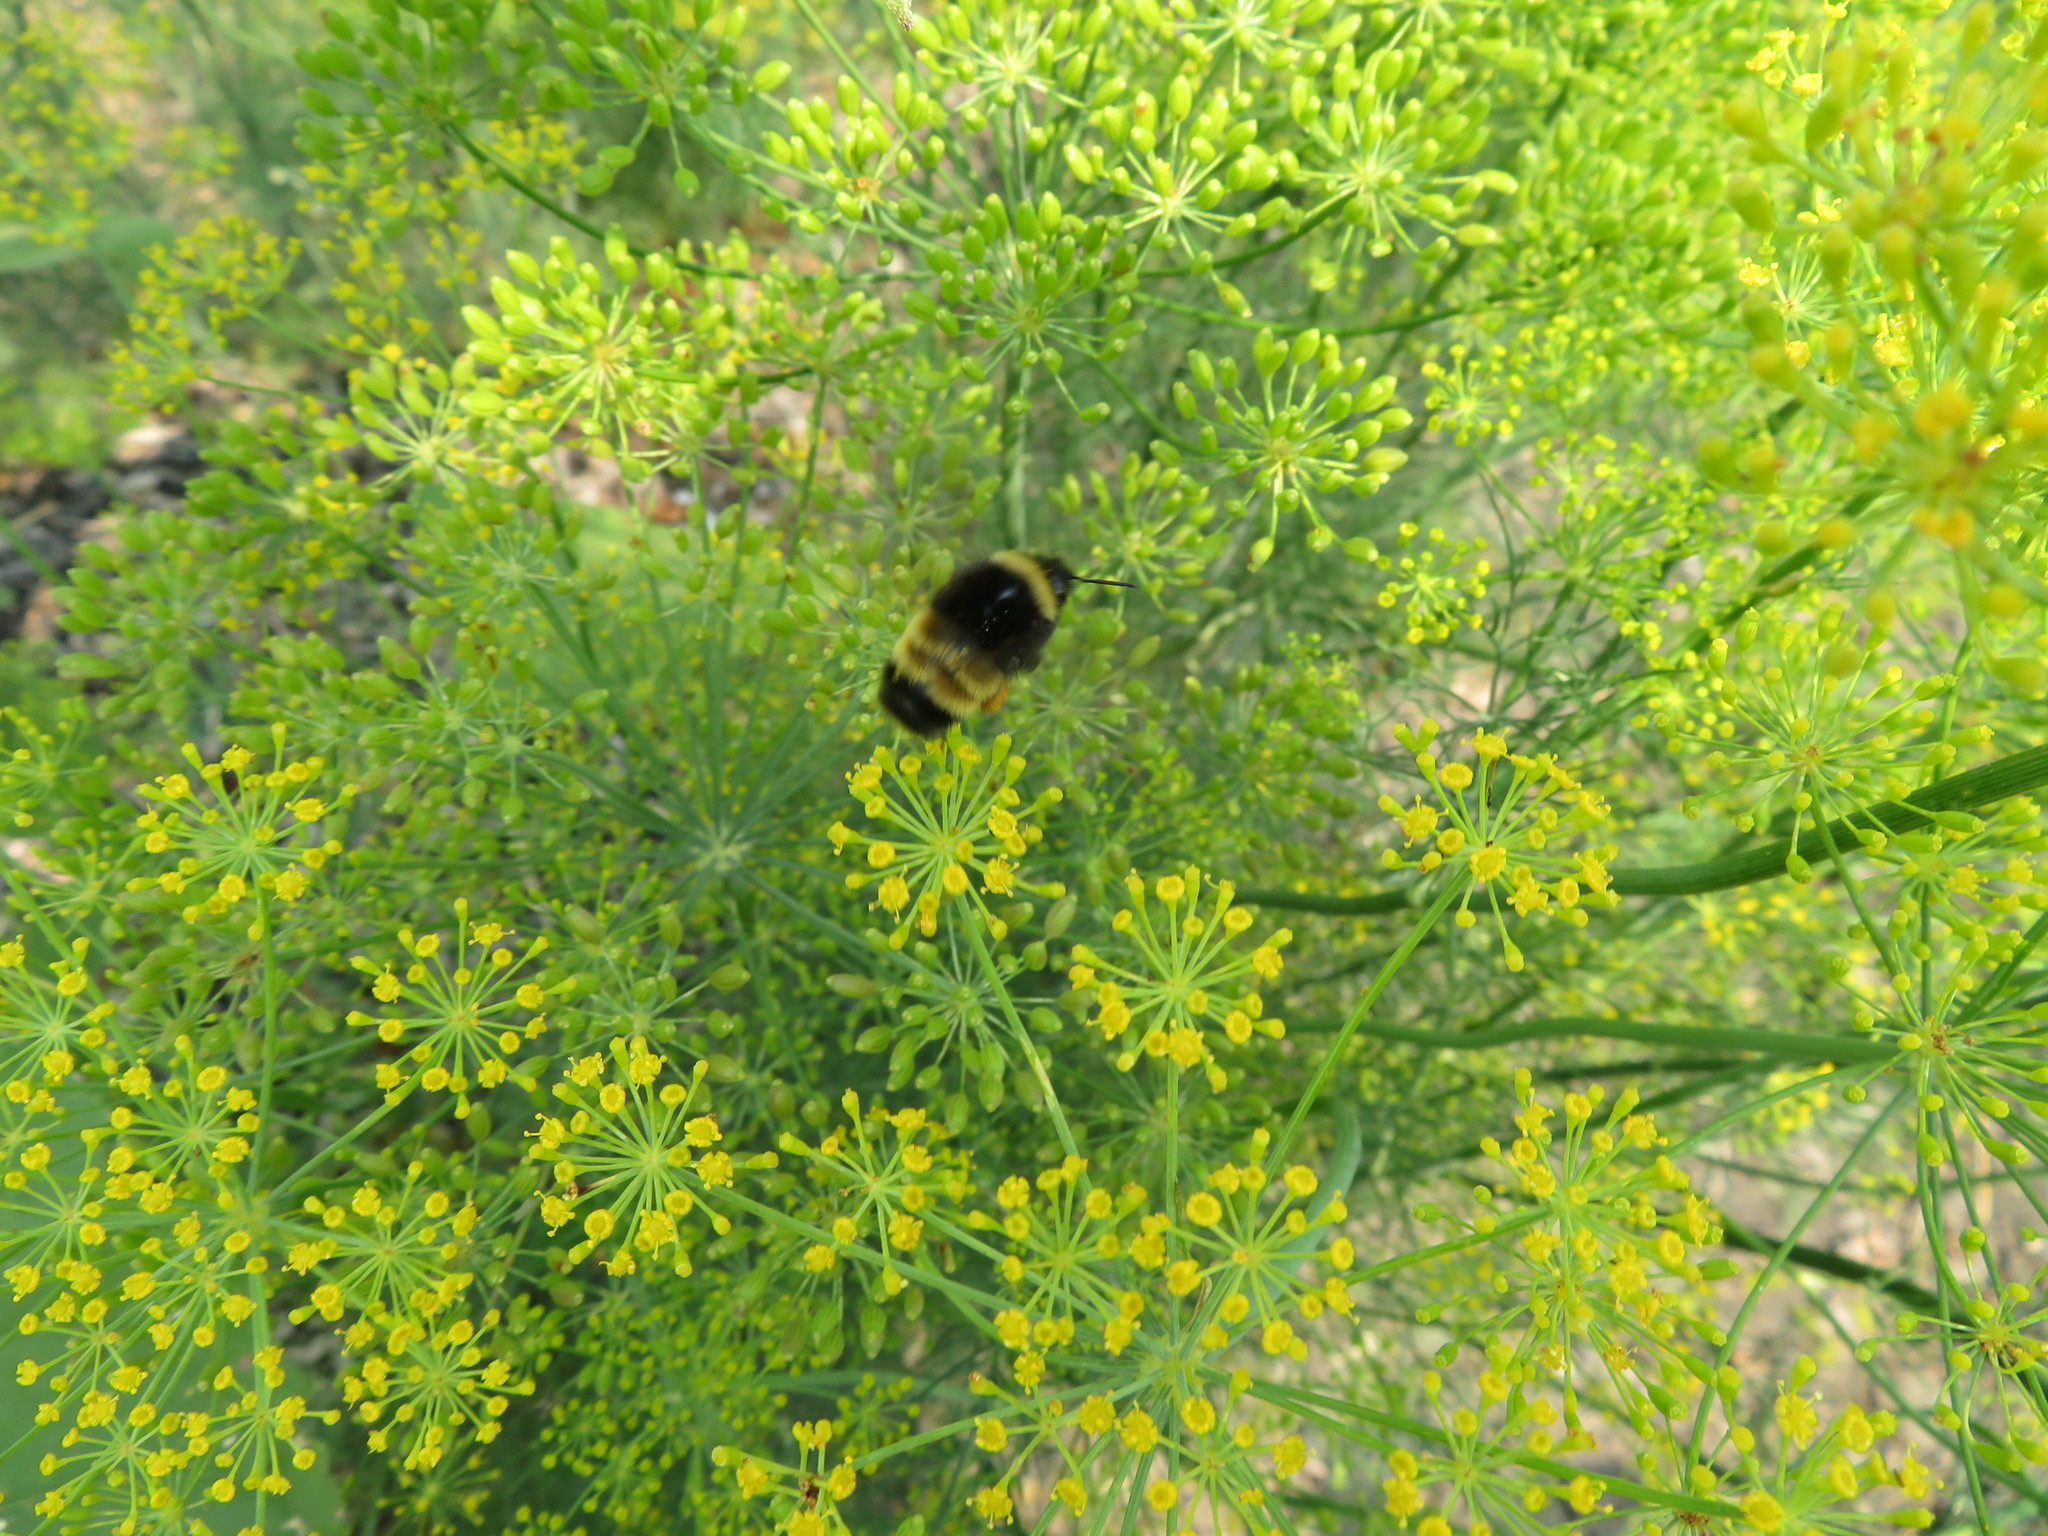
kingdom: Animalia
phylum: Arthropoda
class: Insecta
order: Hymenoptera
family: Apidae
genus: Bombus
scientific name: Bombus terricola
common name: Yellow-banded bumble bee
